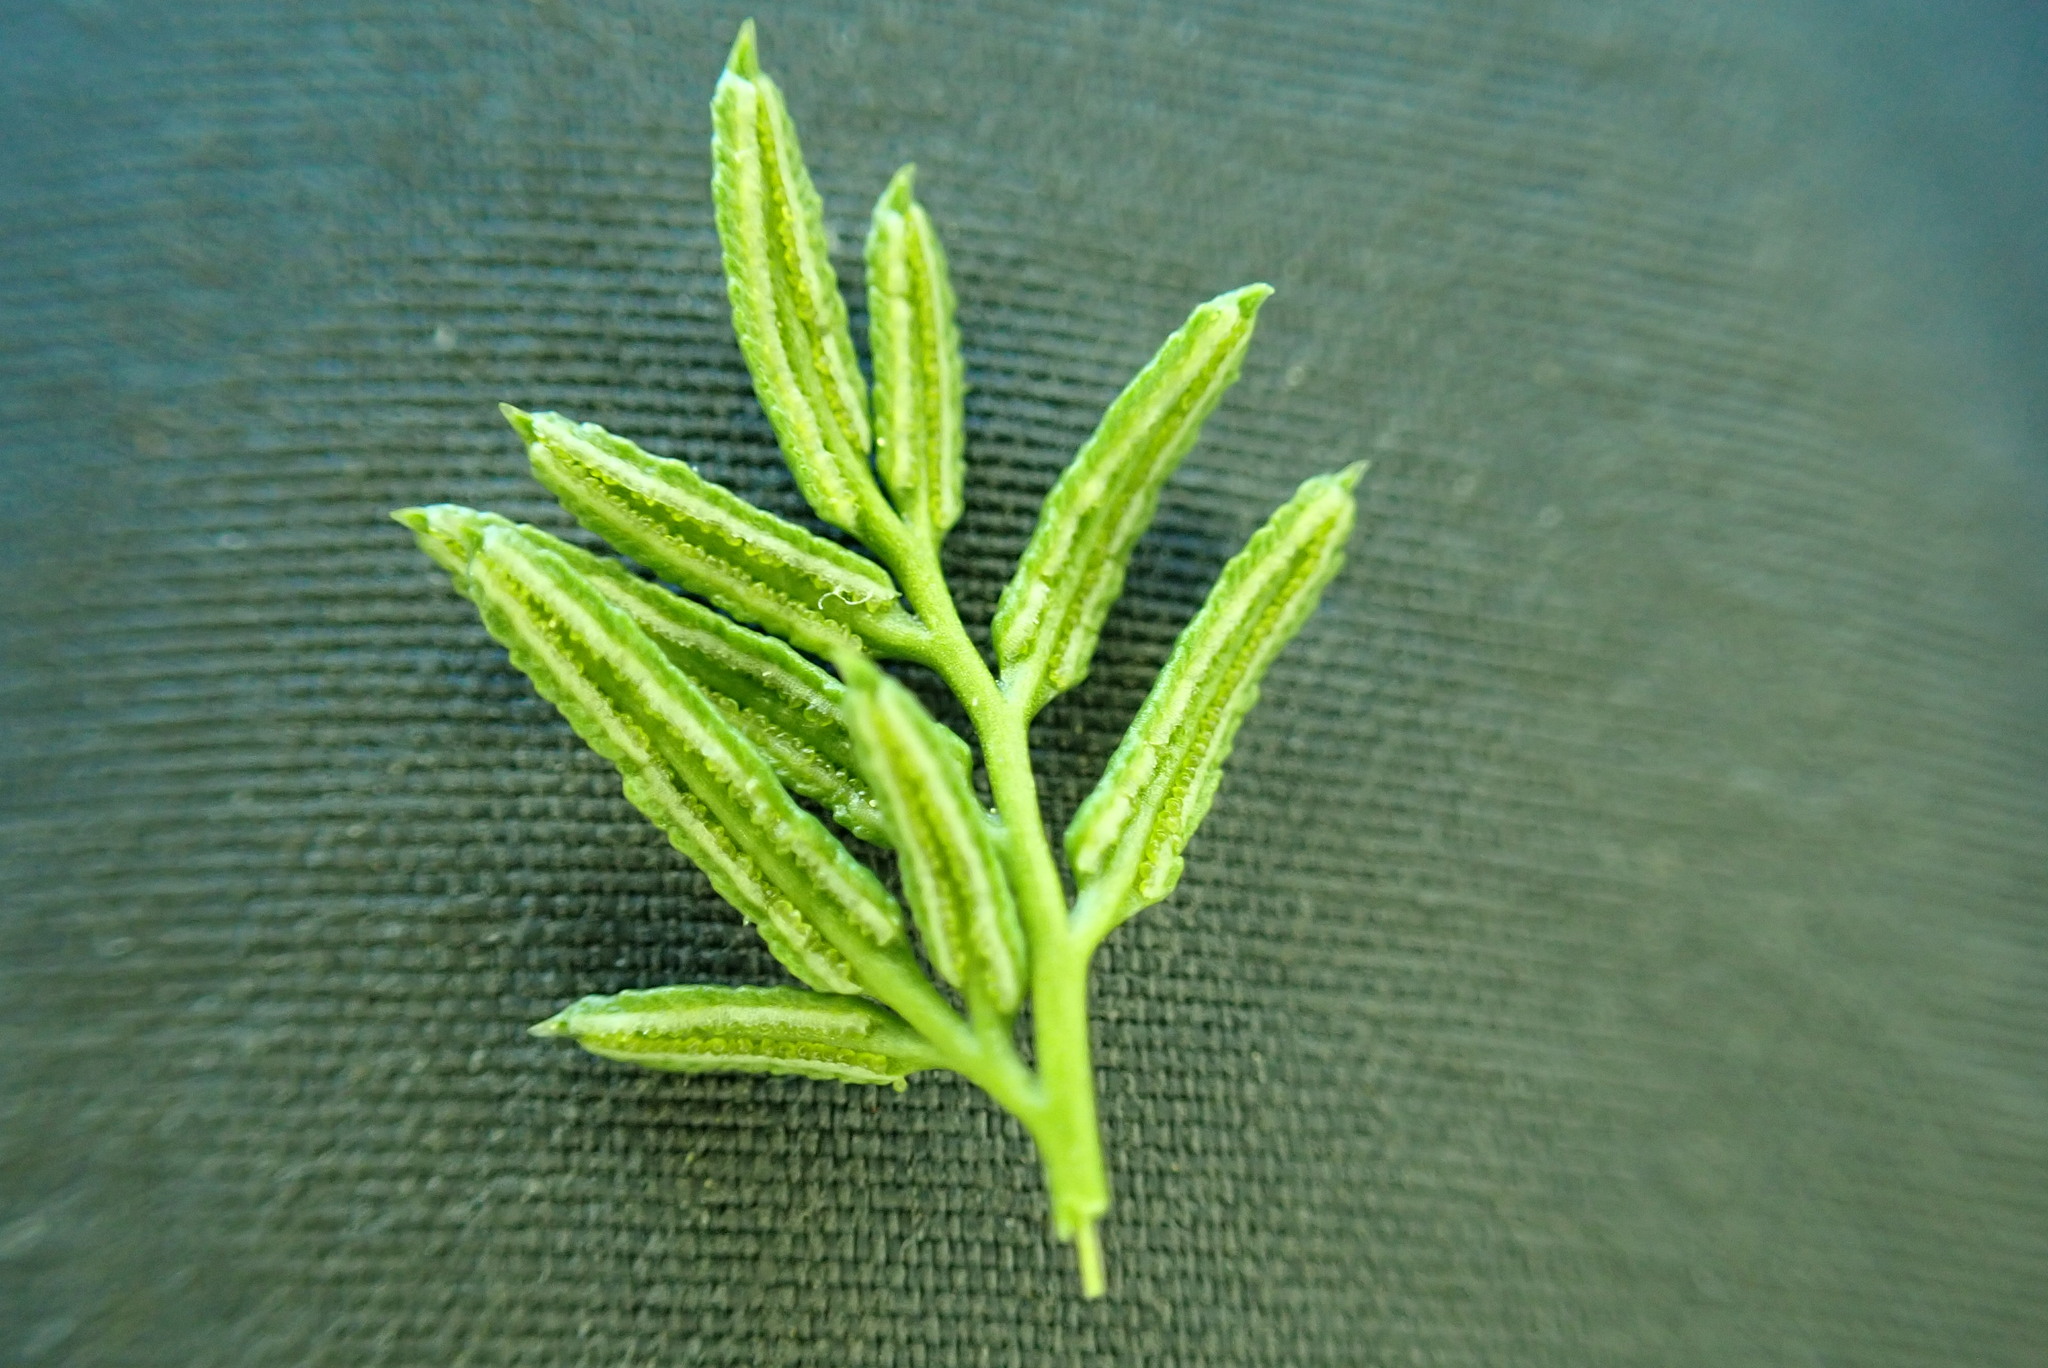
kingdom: Plantae
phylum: Tracheophyta
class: Polypodiopsida
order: Polypodiales
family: Pteridaceae
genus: Aspidotis
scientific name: Aspidotis densa
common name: Indian's dream
